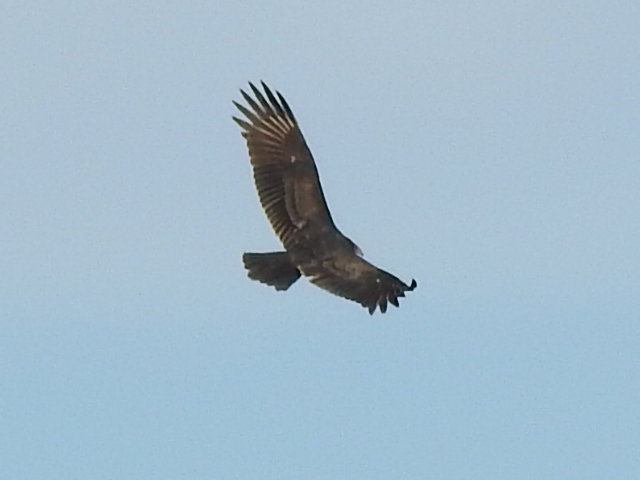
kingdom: Animalia
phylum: Chordata
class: Aves
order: Accipitriformes
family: Cathartidae
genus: Cathartes
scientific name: Cathartes aura
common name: Turkey vulture
